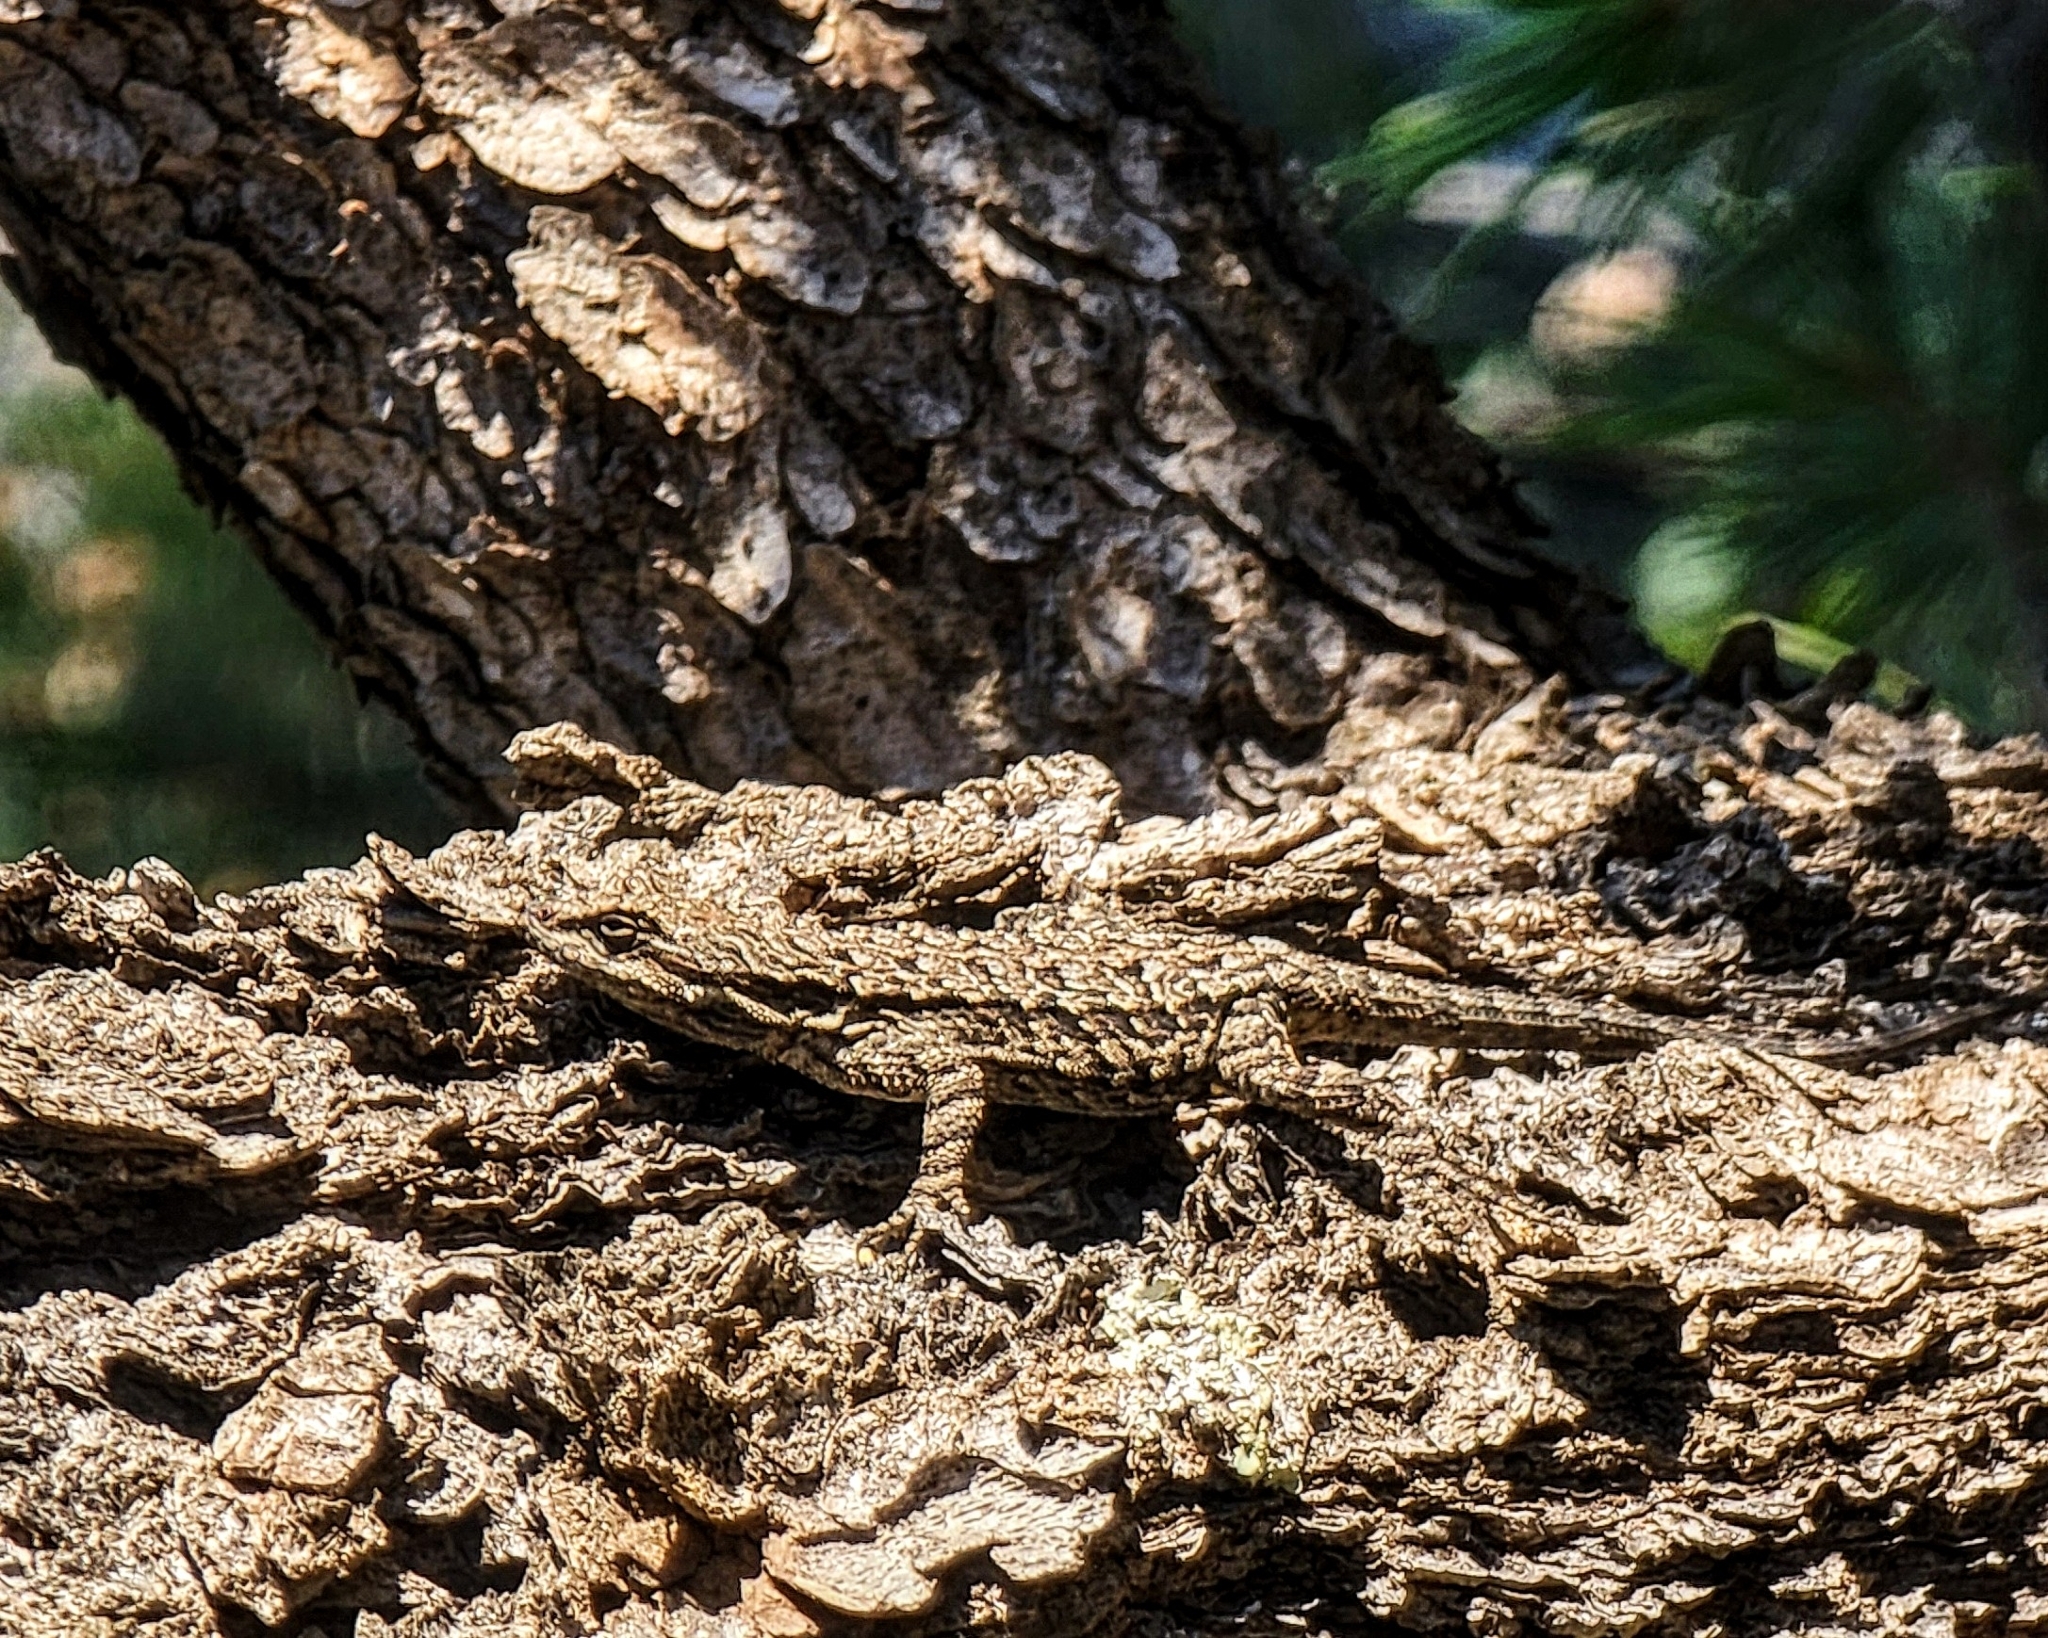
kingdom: Animalia
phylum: Chordata
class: Squamata
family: Phrynosomatidae
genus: Urosaurus
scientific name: Urosaurus ornatus
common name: Ornate tree lizard
